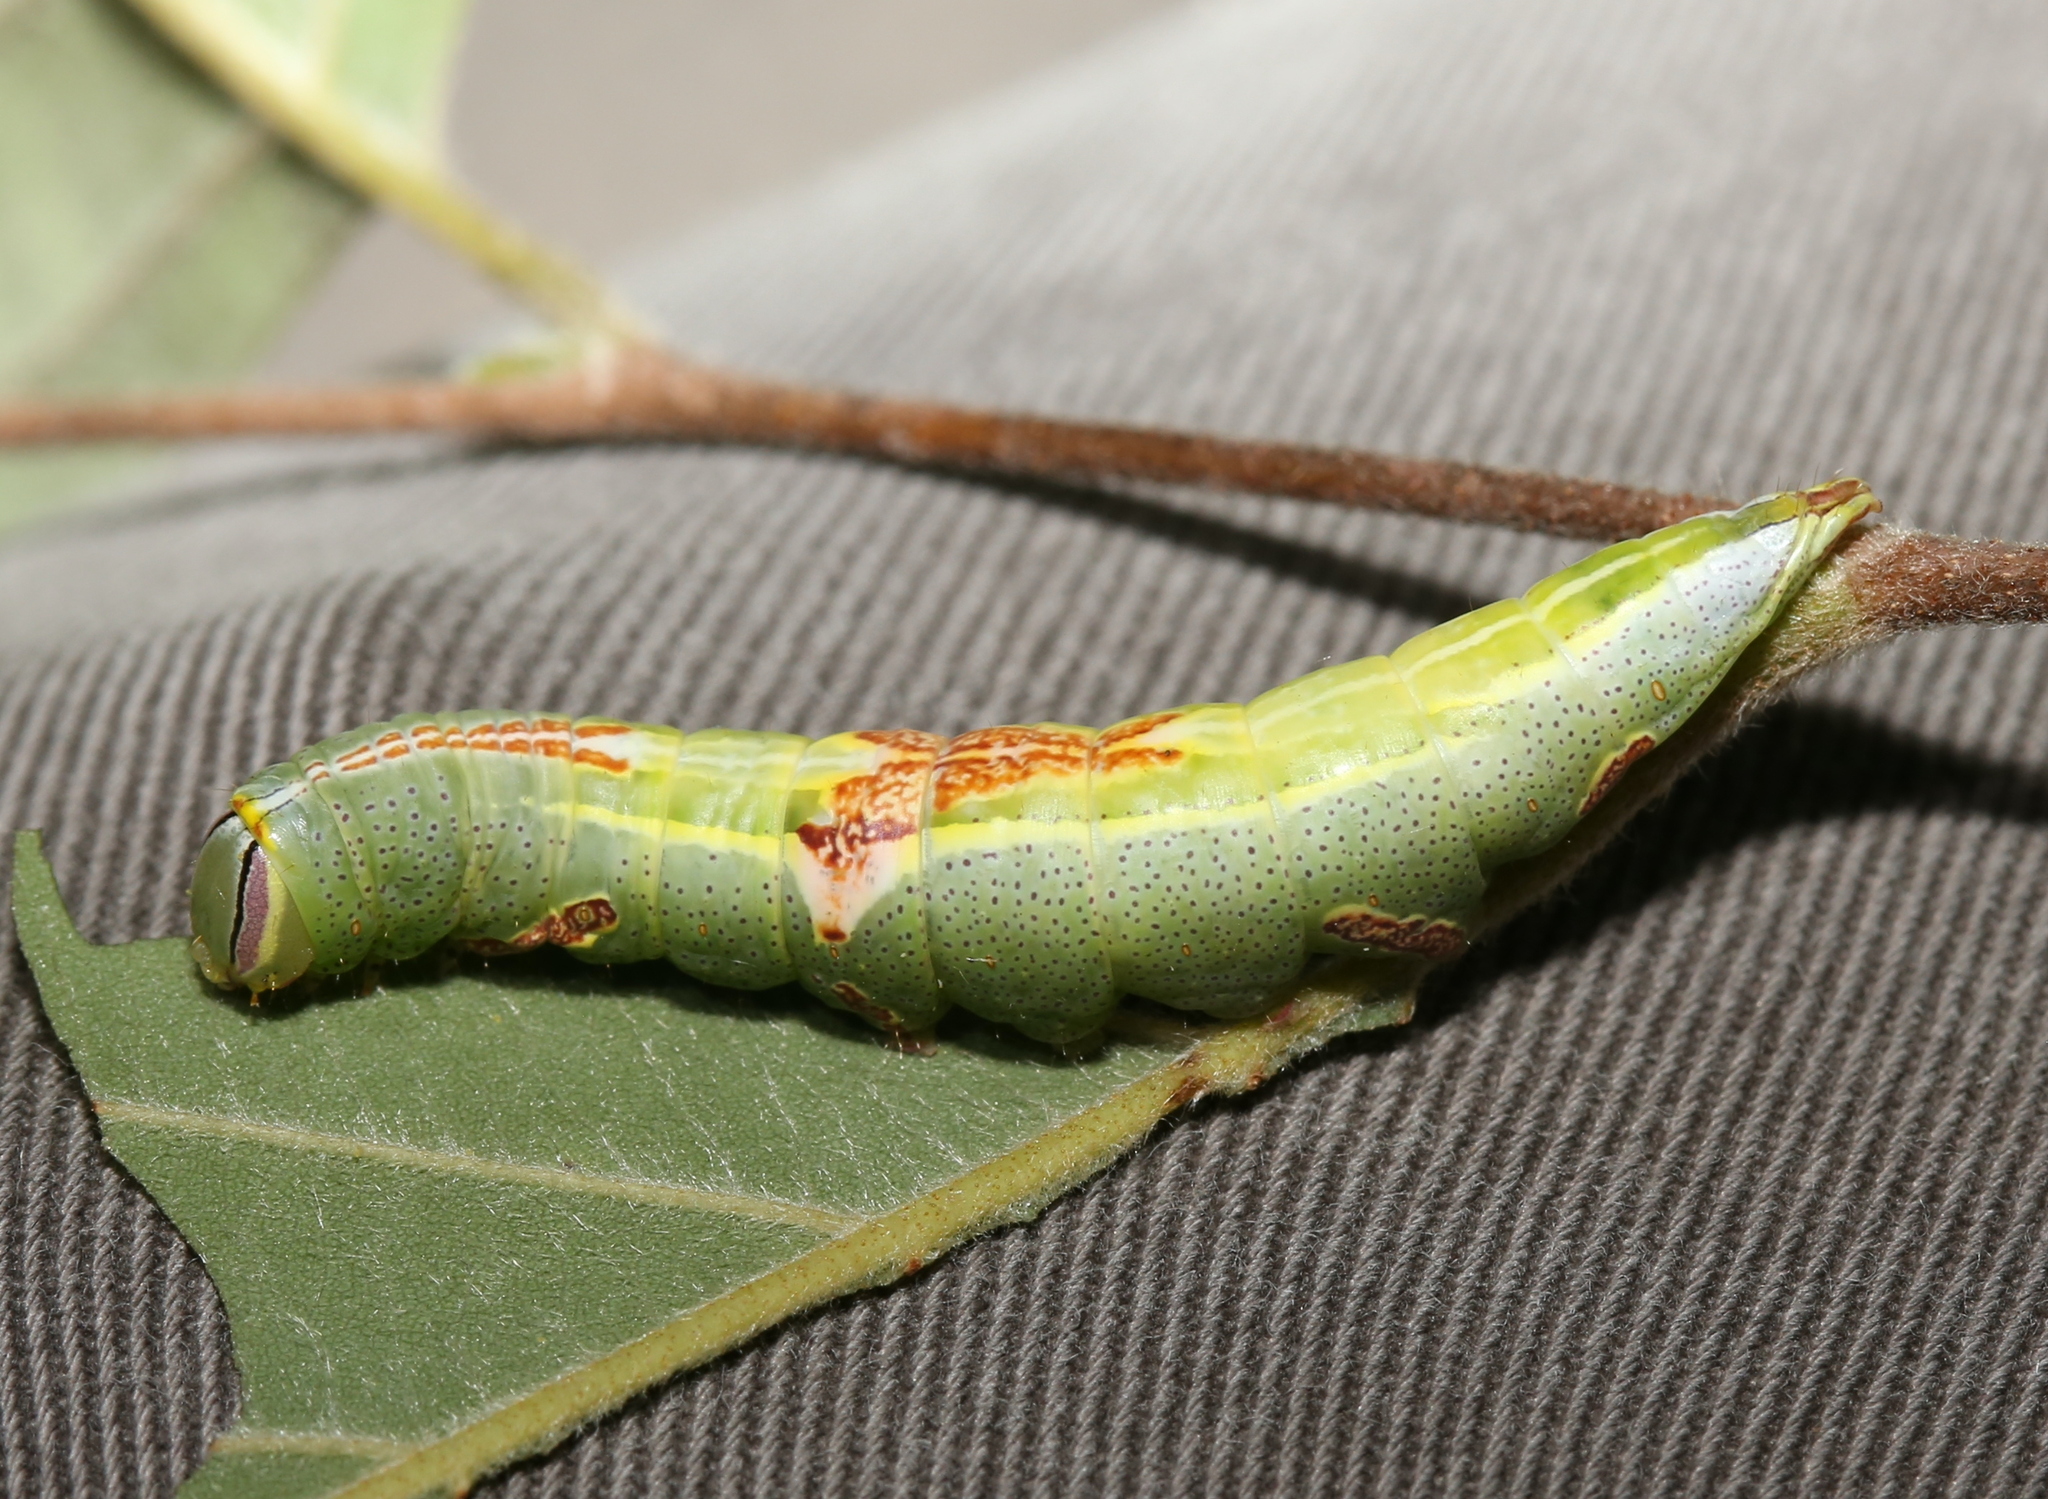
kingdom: Animalia
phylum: Arthropoda
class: Insecta
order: Lepidoptera
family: Notodontidae
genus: Disphragis
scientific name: Disphragis Cecrita guttivitta
